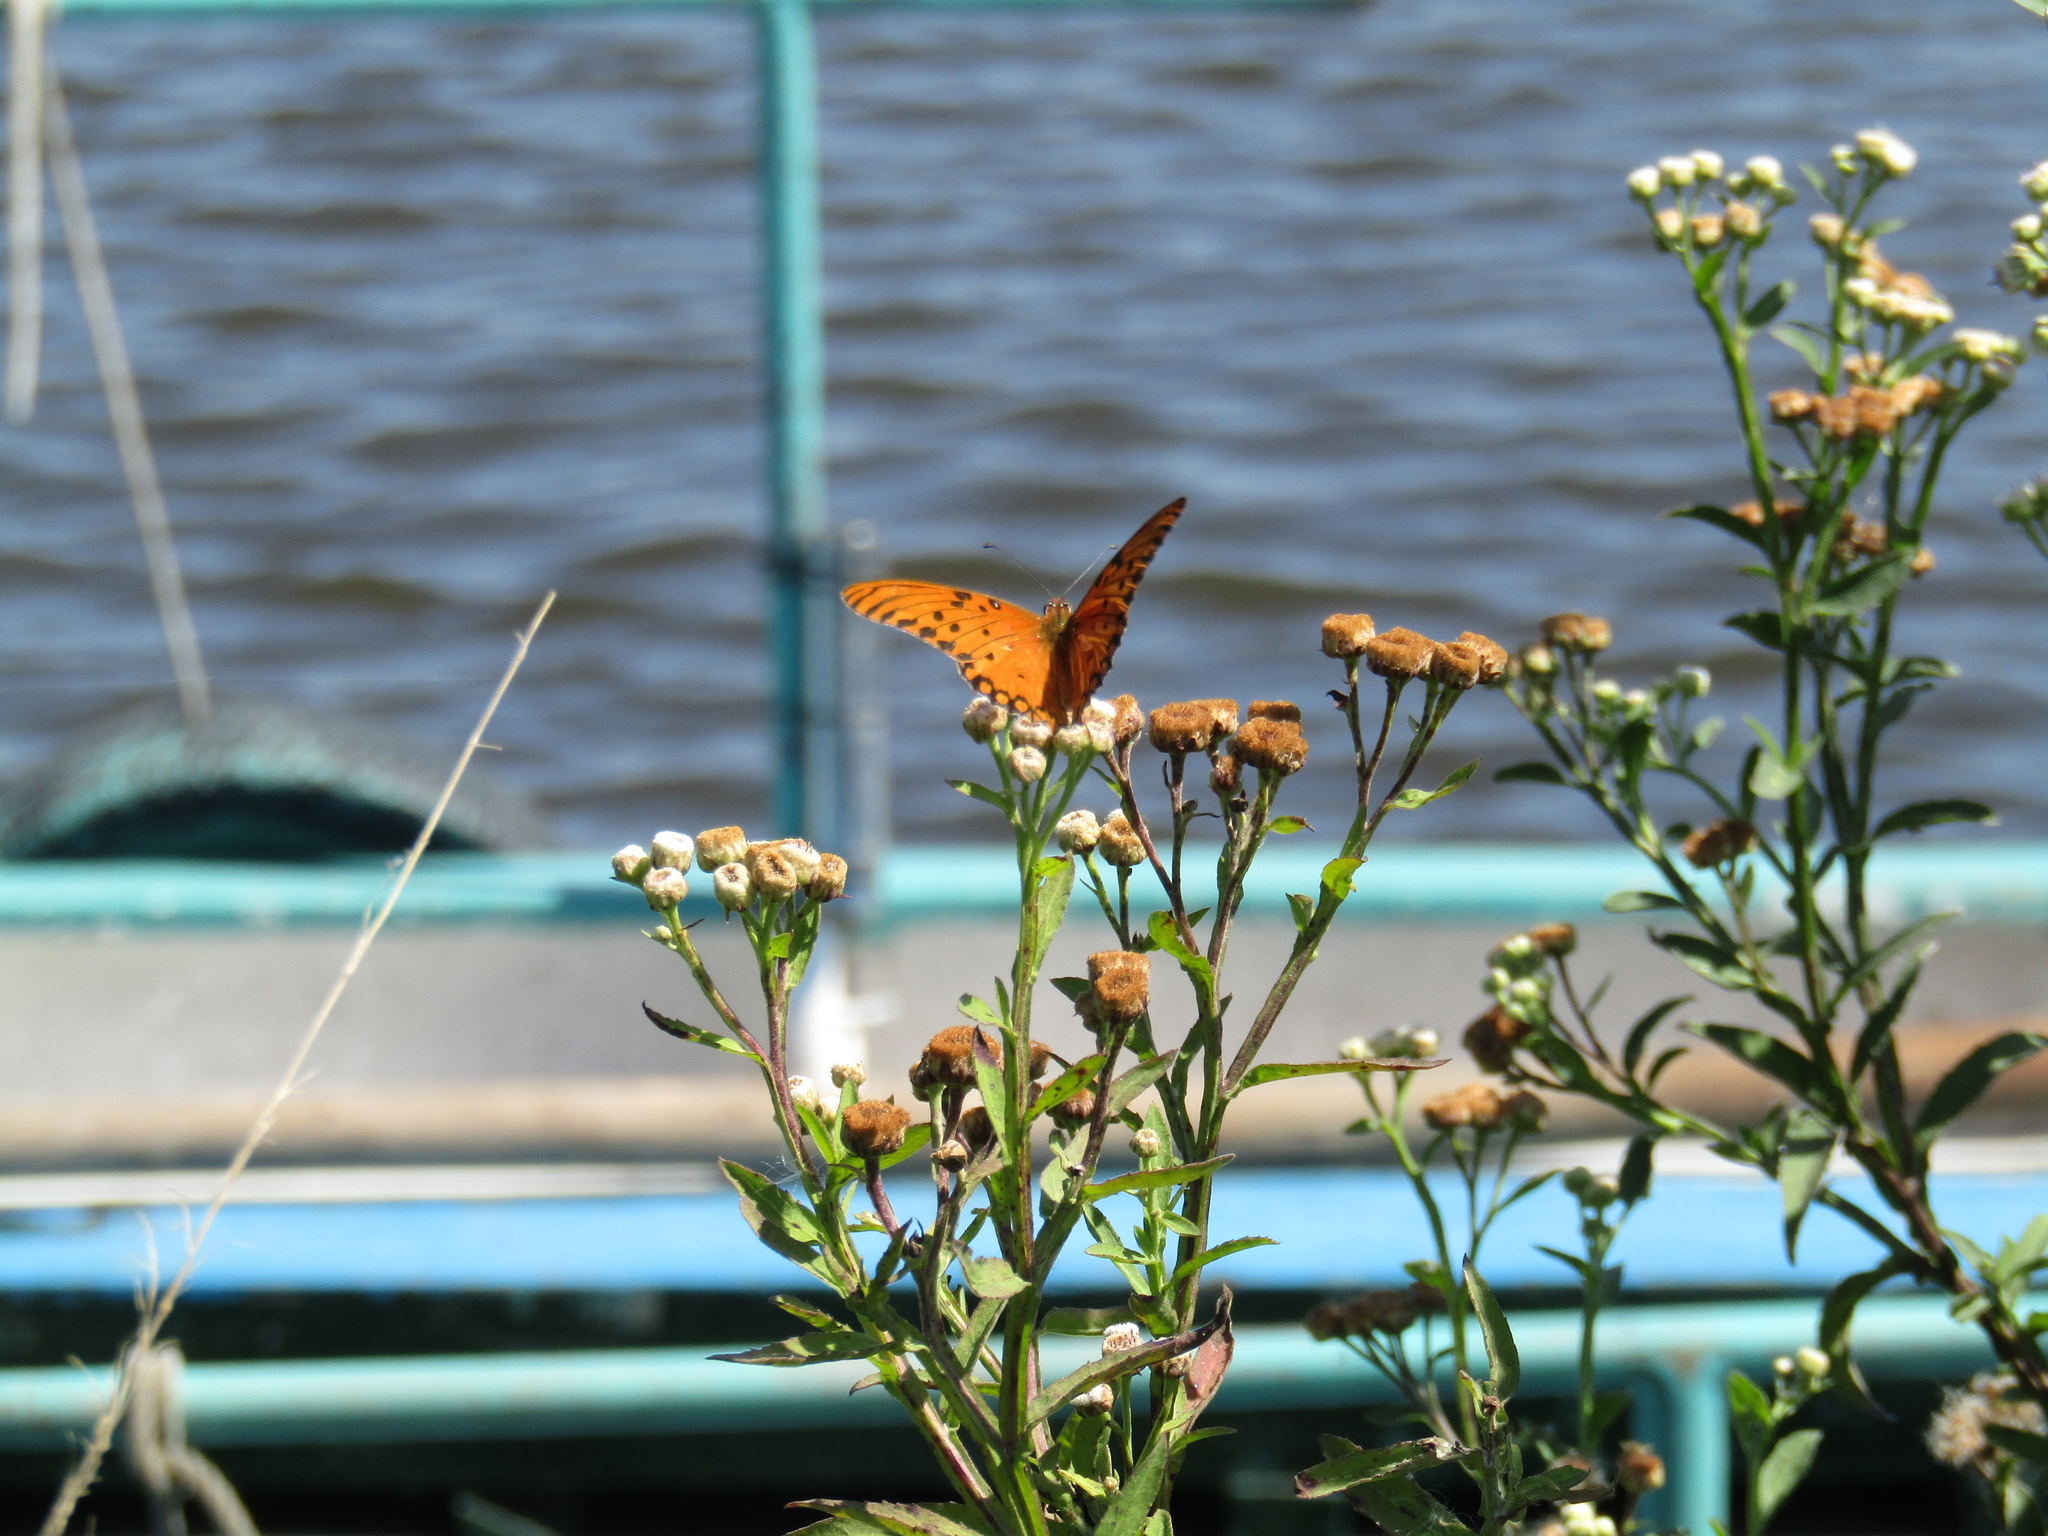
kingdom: Animalia
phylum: Arthropoda
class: Insecta
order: Lepidoptera
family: Nymphalidae
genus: Dione
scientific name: Dione vanillae
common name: Gulf fritillary
